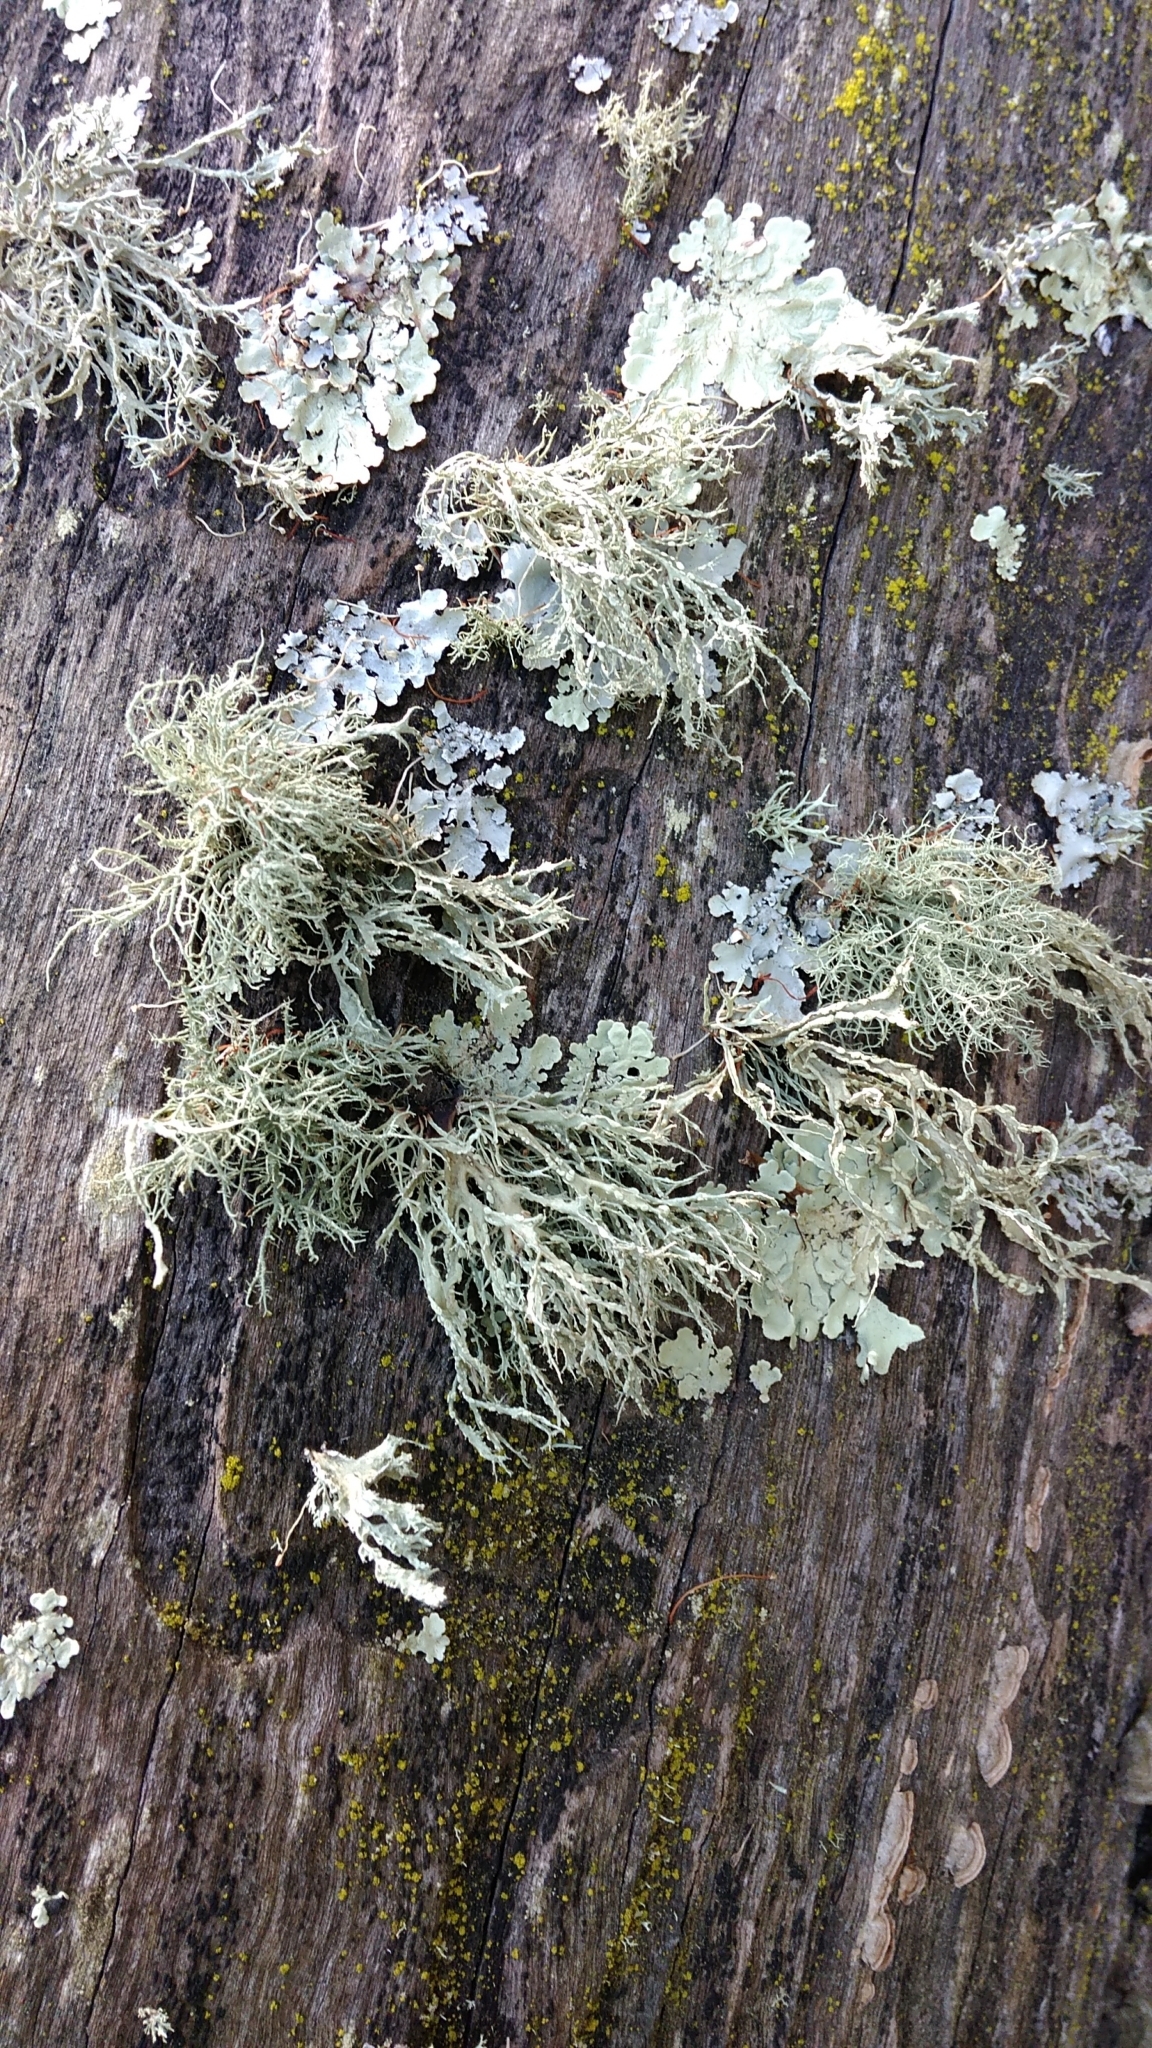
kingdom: Fungi
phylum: Ascomycota
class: Lecanoromycetes
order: Lecanorales
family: Ramalinaceae
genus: Ramalina
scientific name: Ramalina farinacea
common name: Farinose cartilage lichen
